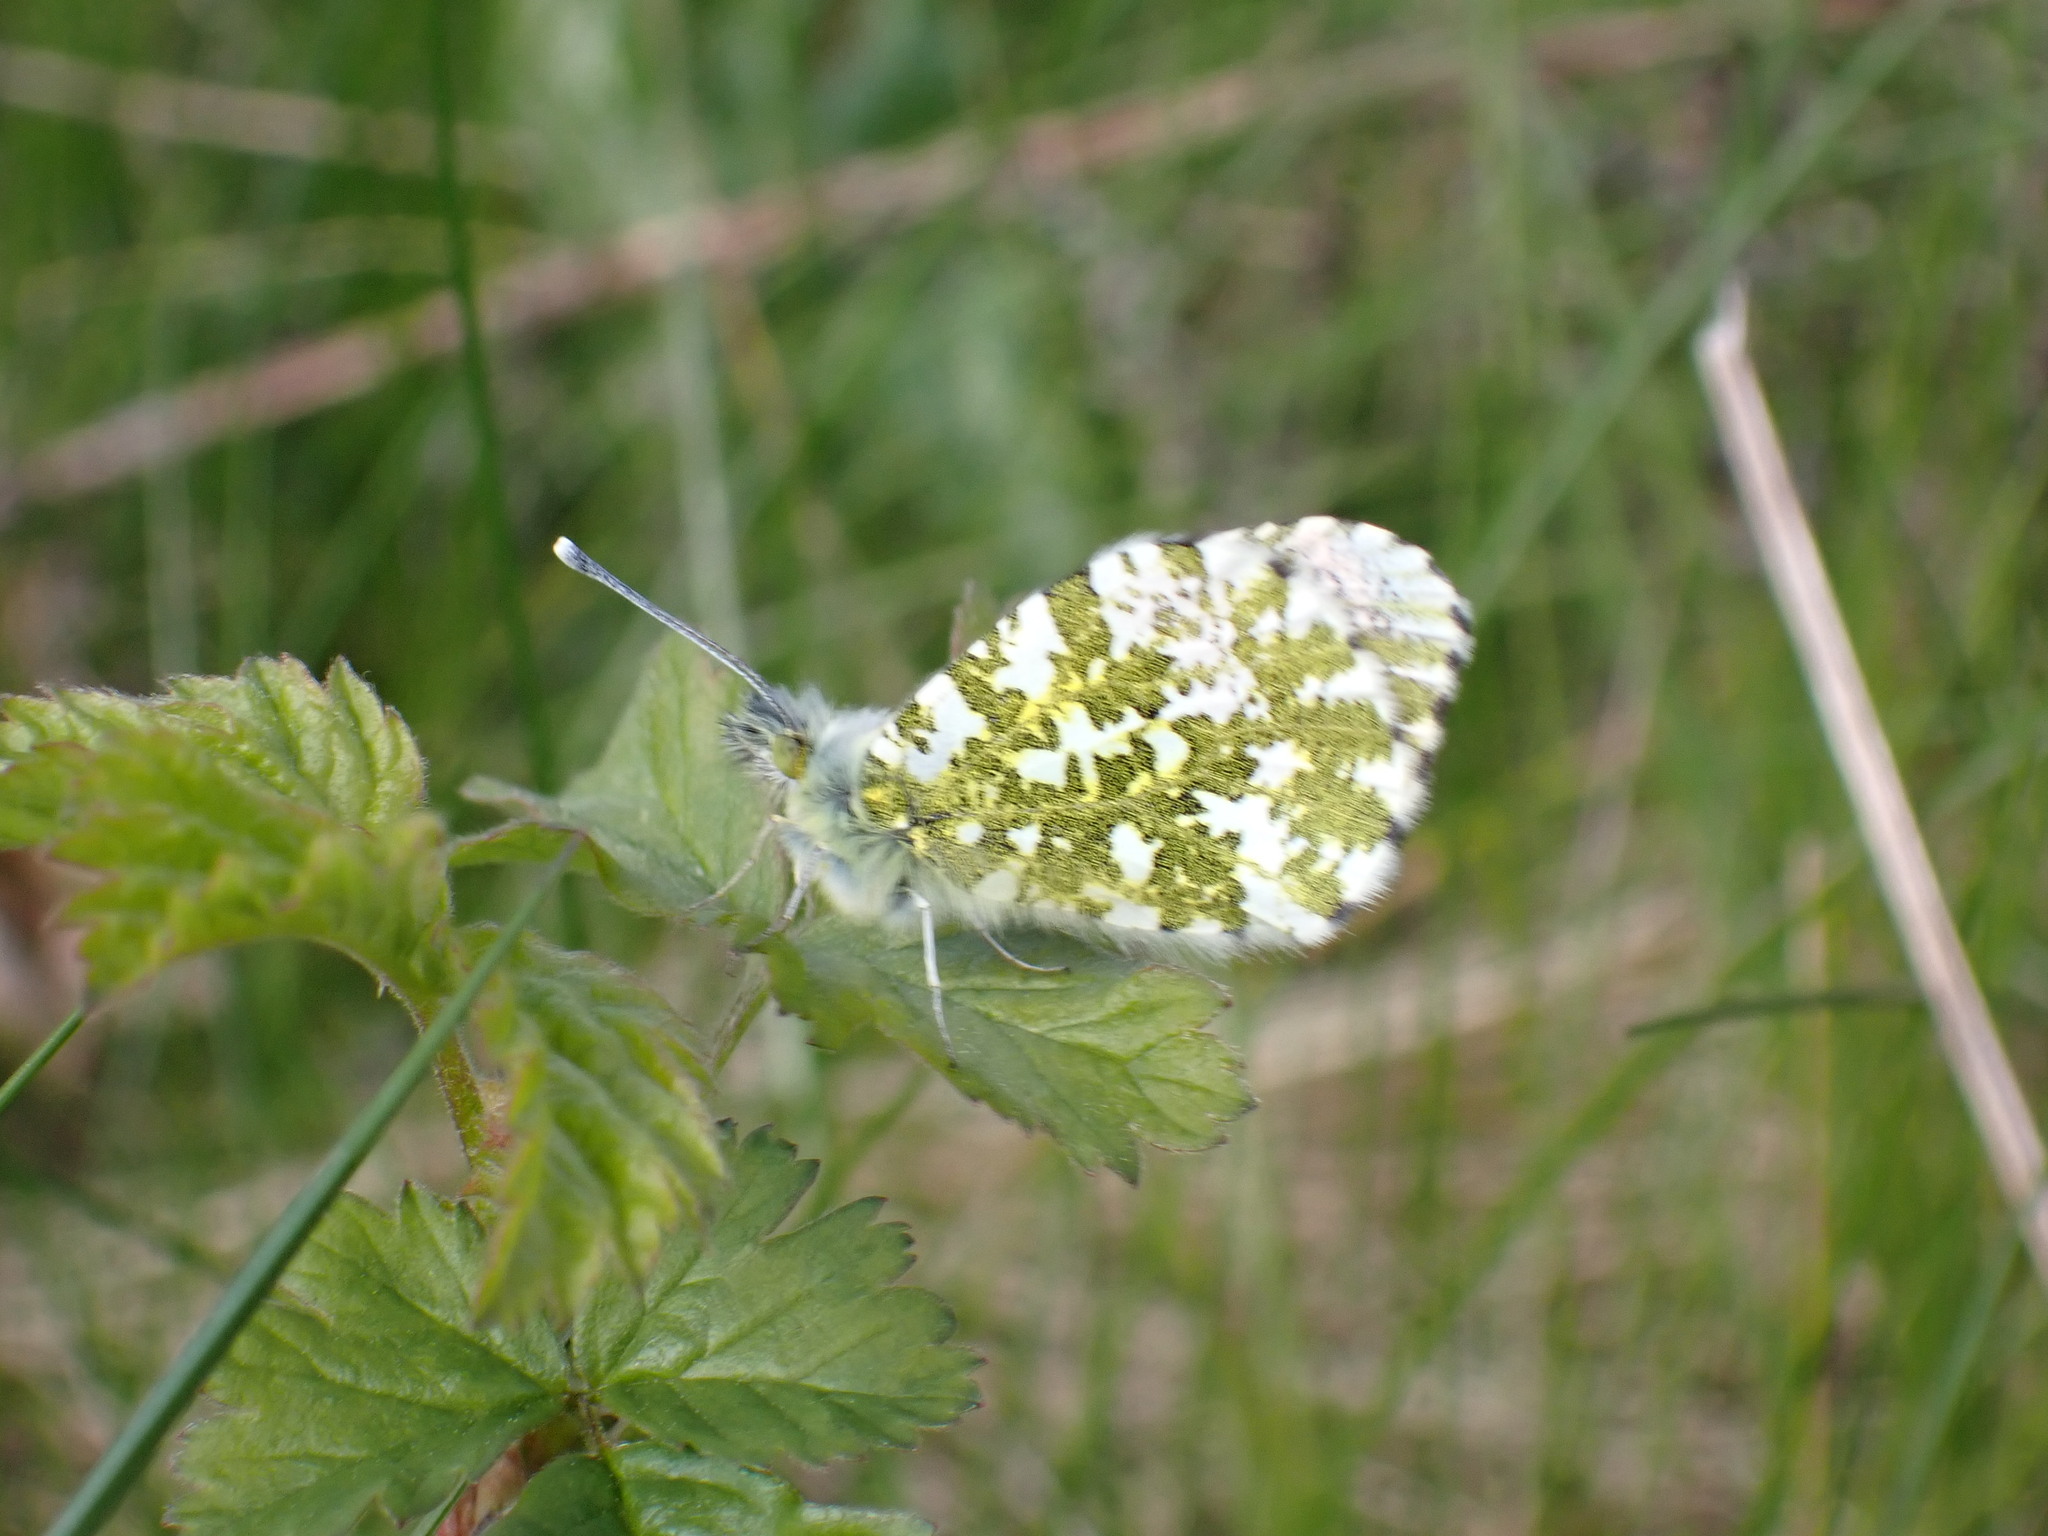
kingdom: Animalia
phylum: Arthropoda
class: Insecta
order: Lepidoptera
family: Pieridae
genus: Anthocharis
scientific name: Anthocharis cardamines
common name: Orange-tip
